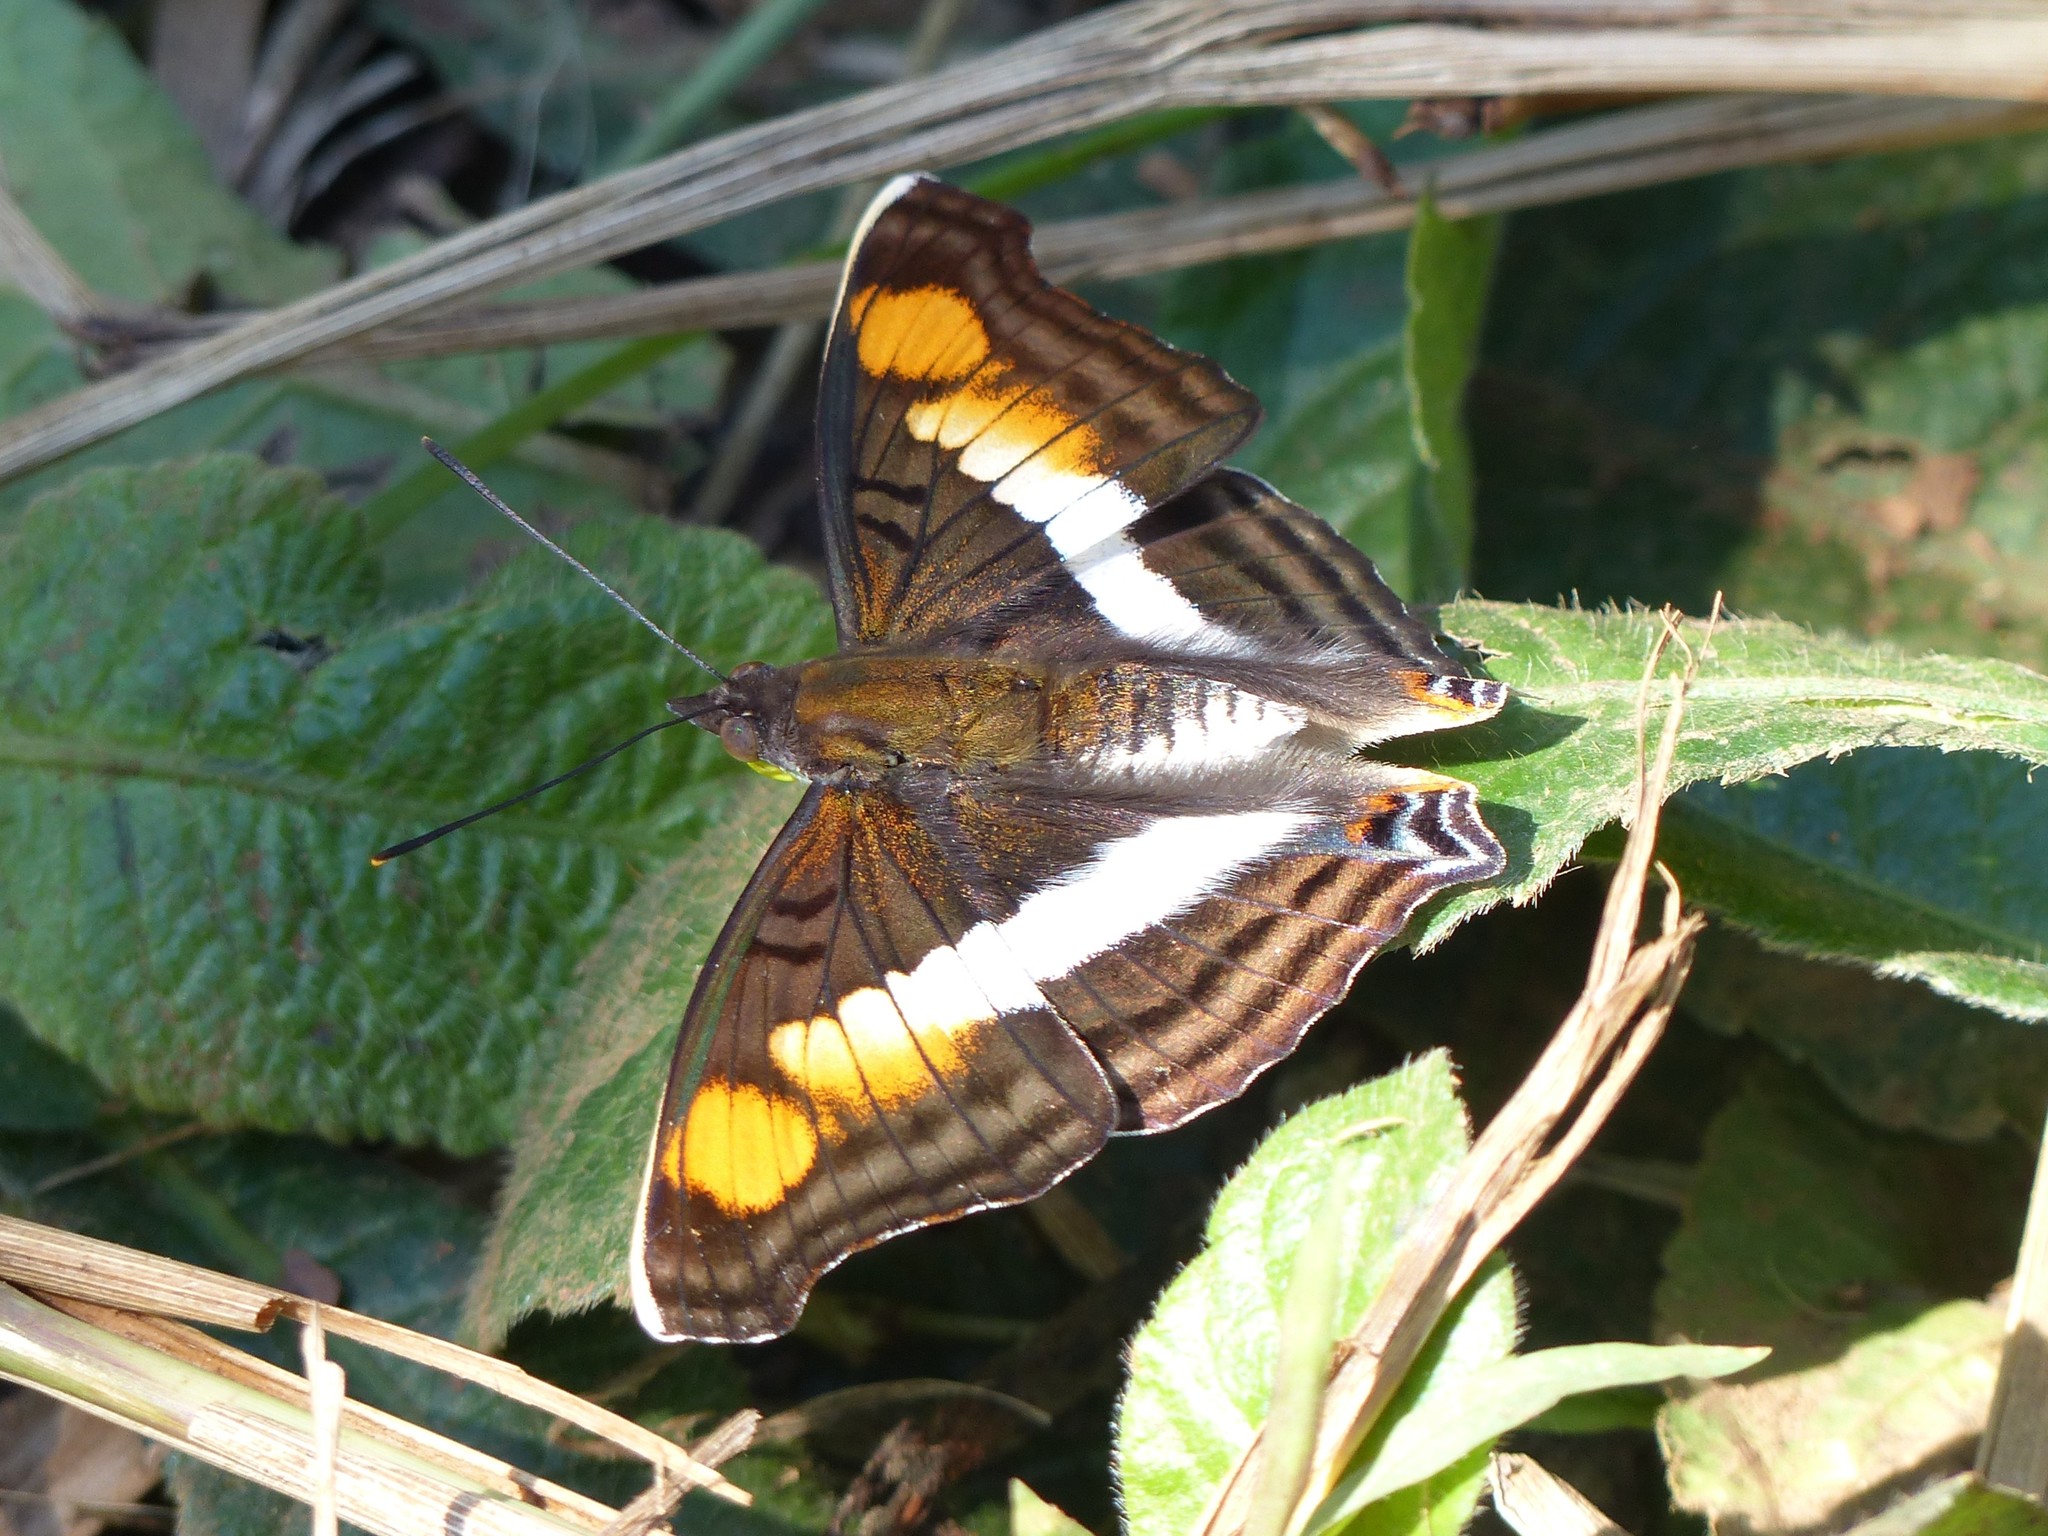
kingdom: Animalia
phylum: Arthropoda
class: Insecta
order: Lepidoptera
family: Nymphalidae
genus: Doxocopa
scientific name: Doxocopa linda
